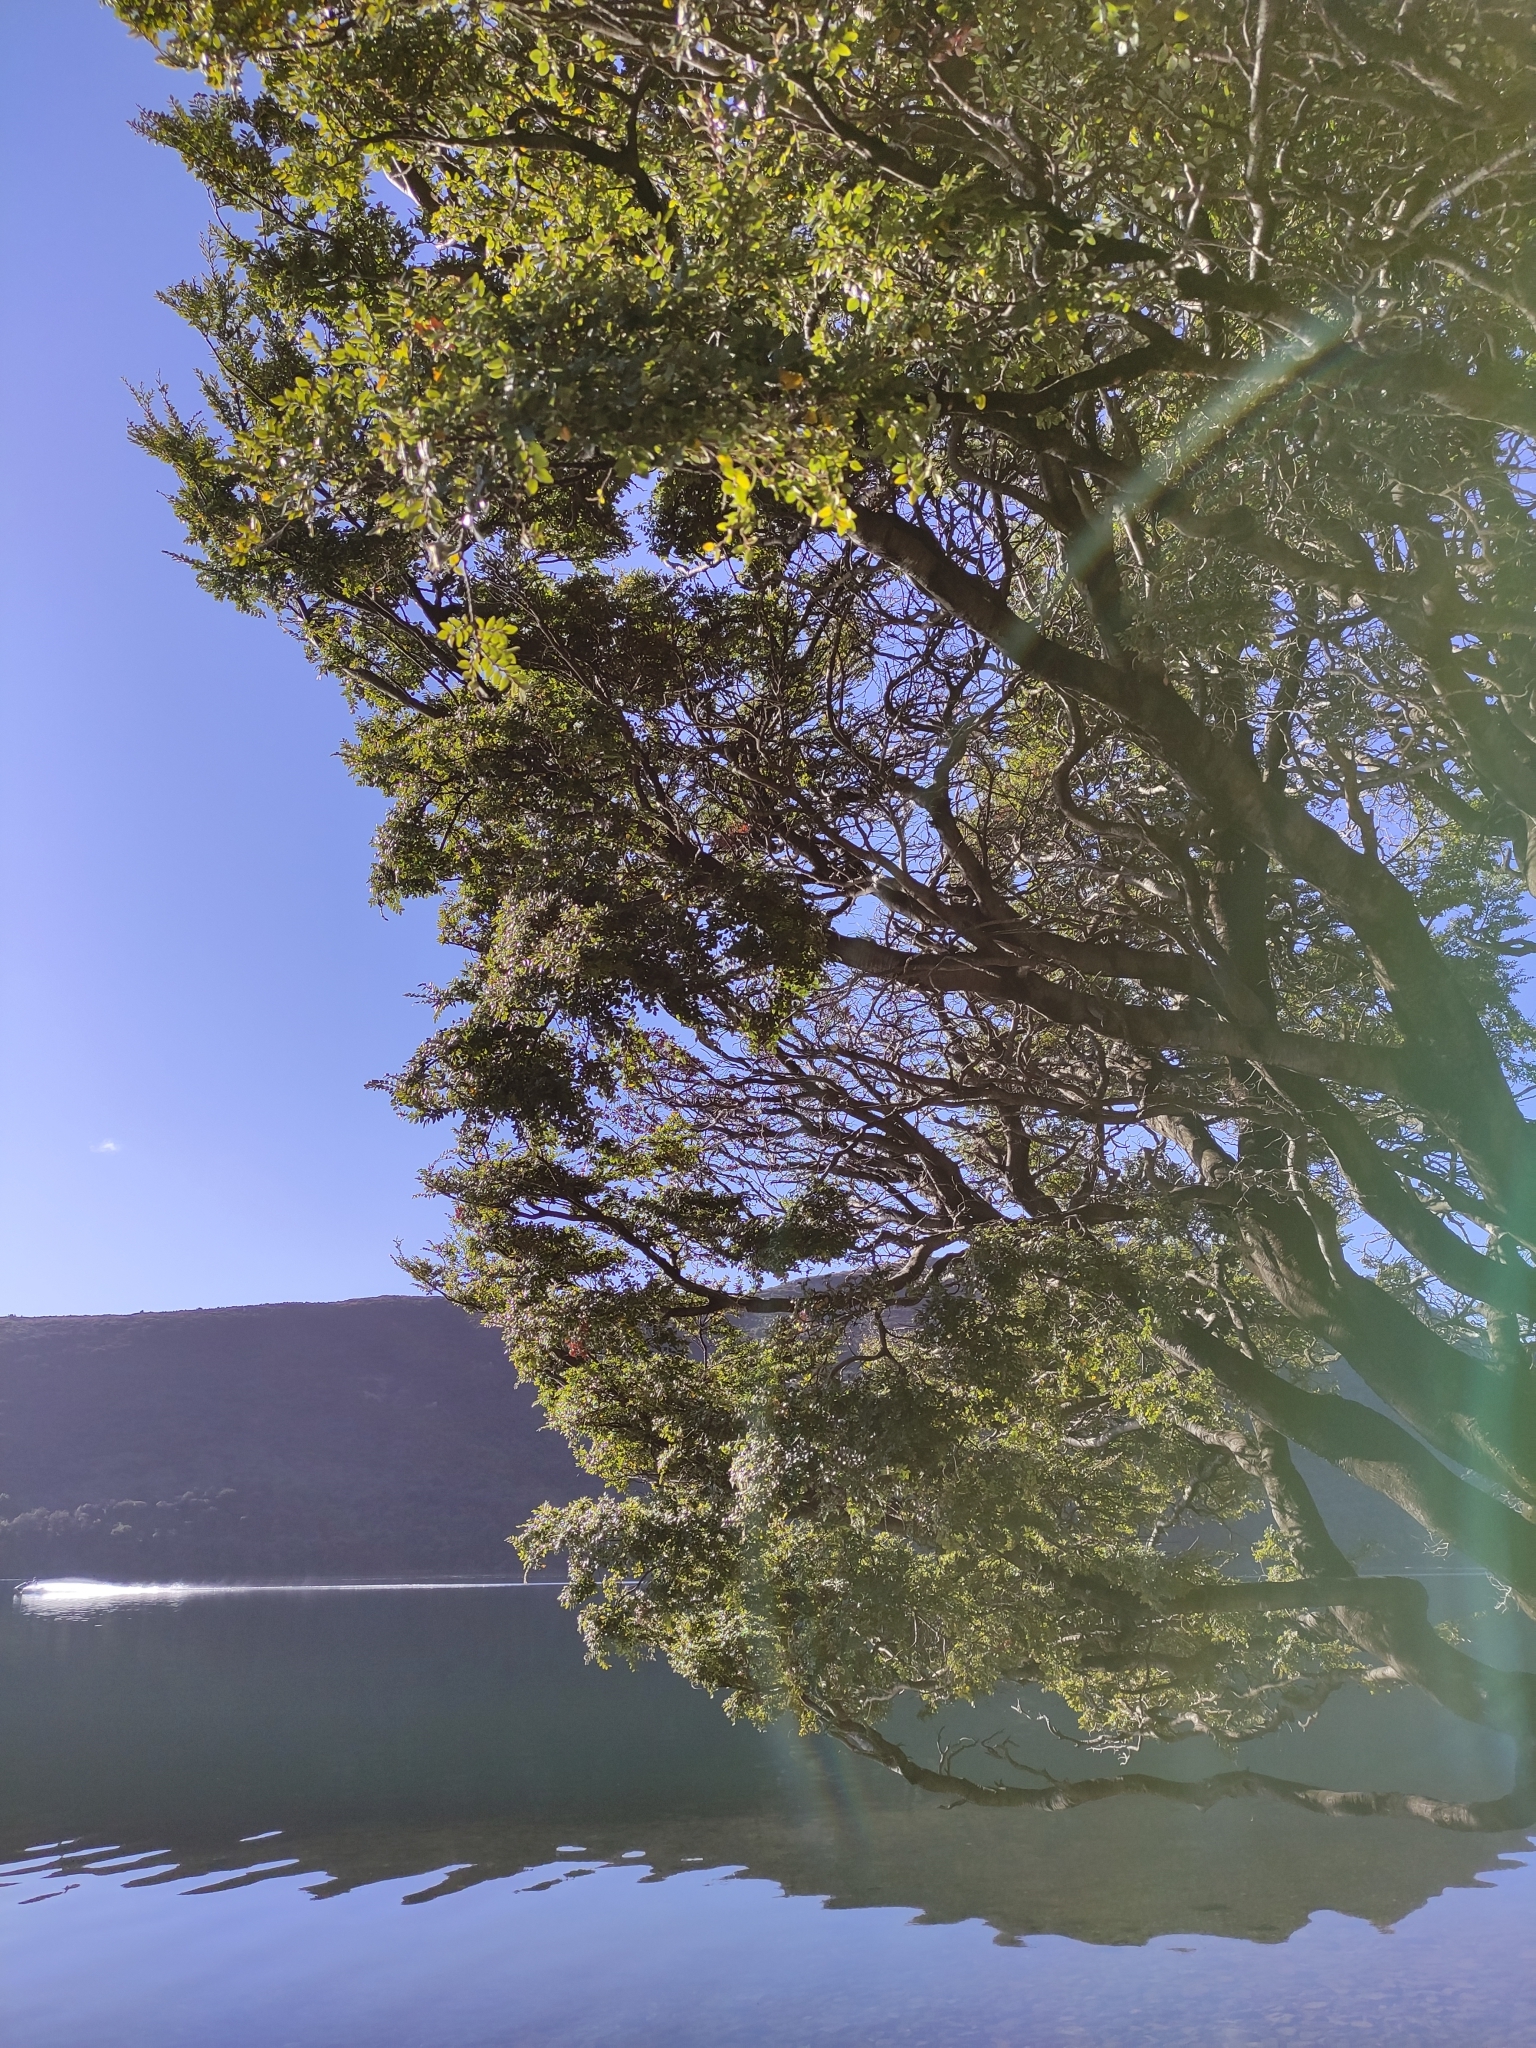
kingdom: Plantae
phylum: Tracheophyta
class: Magnoliopsida
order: Fagales
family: Nothofagaceae
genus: Nothofagus
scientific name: Nothofagus cliffortioides
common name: Mountain beech
